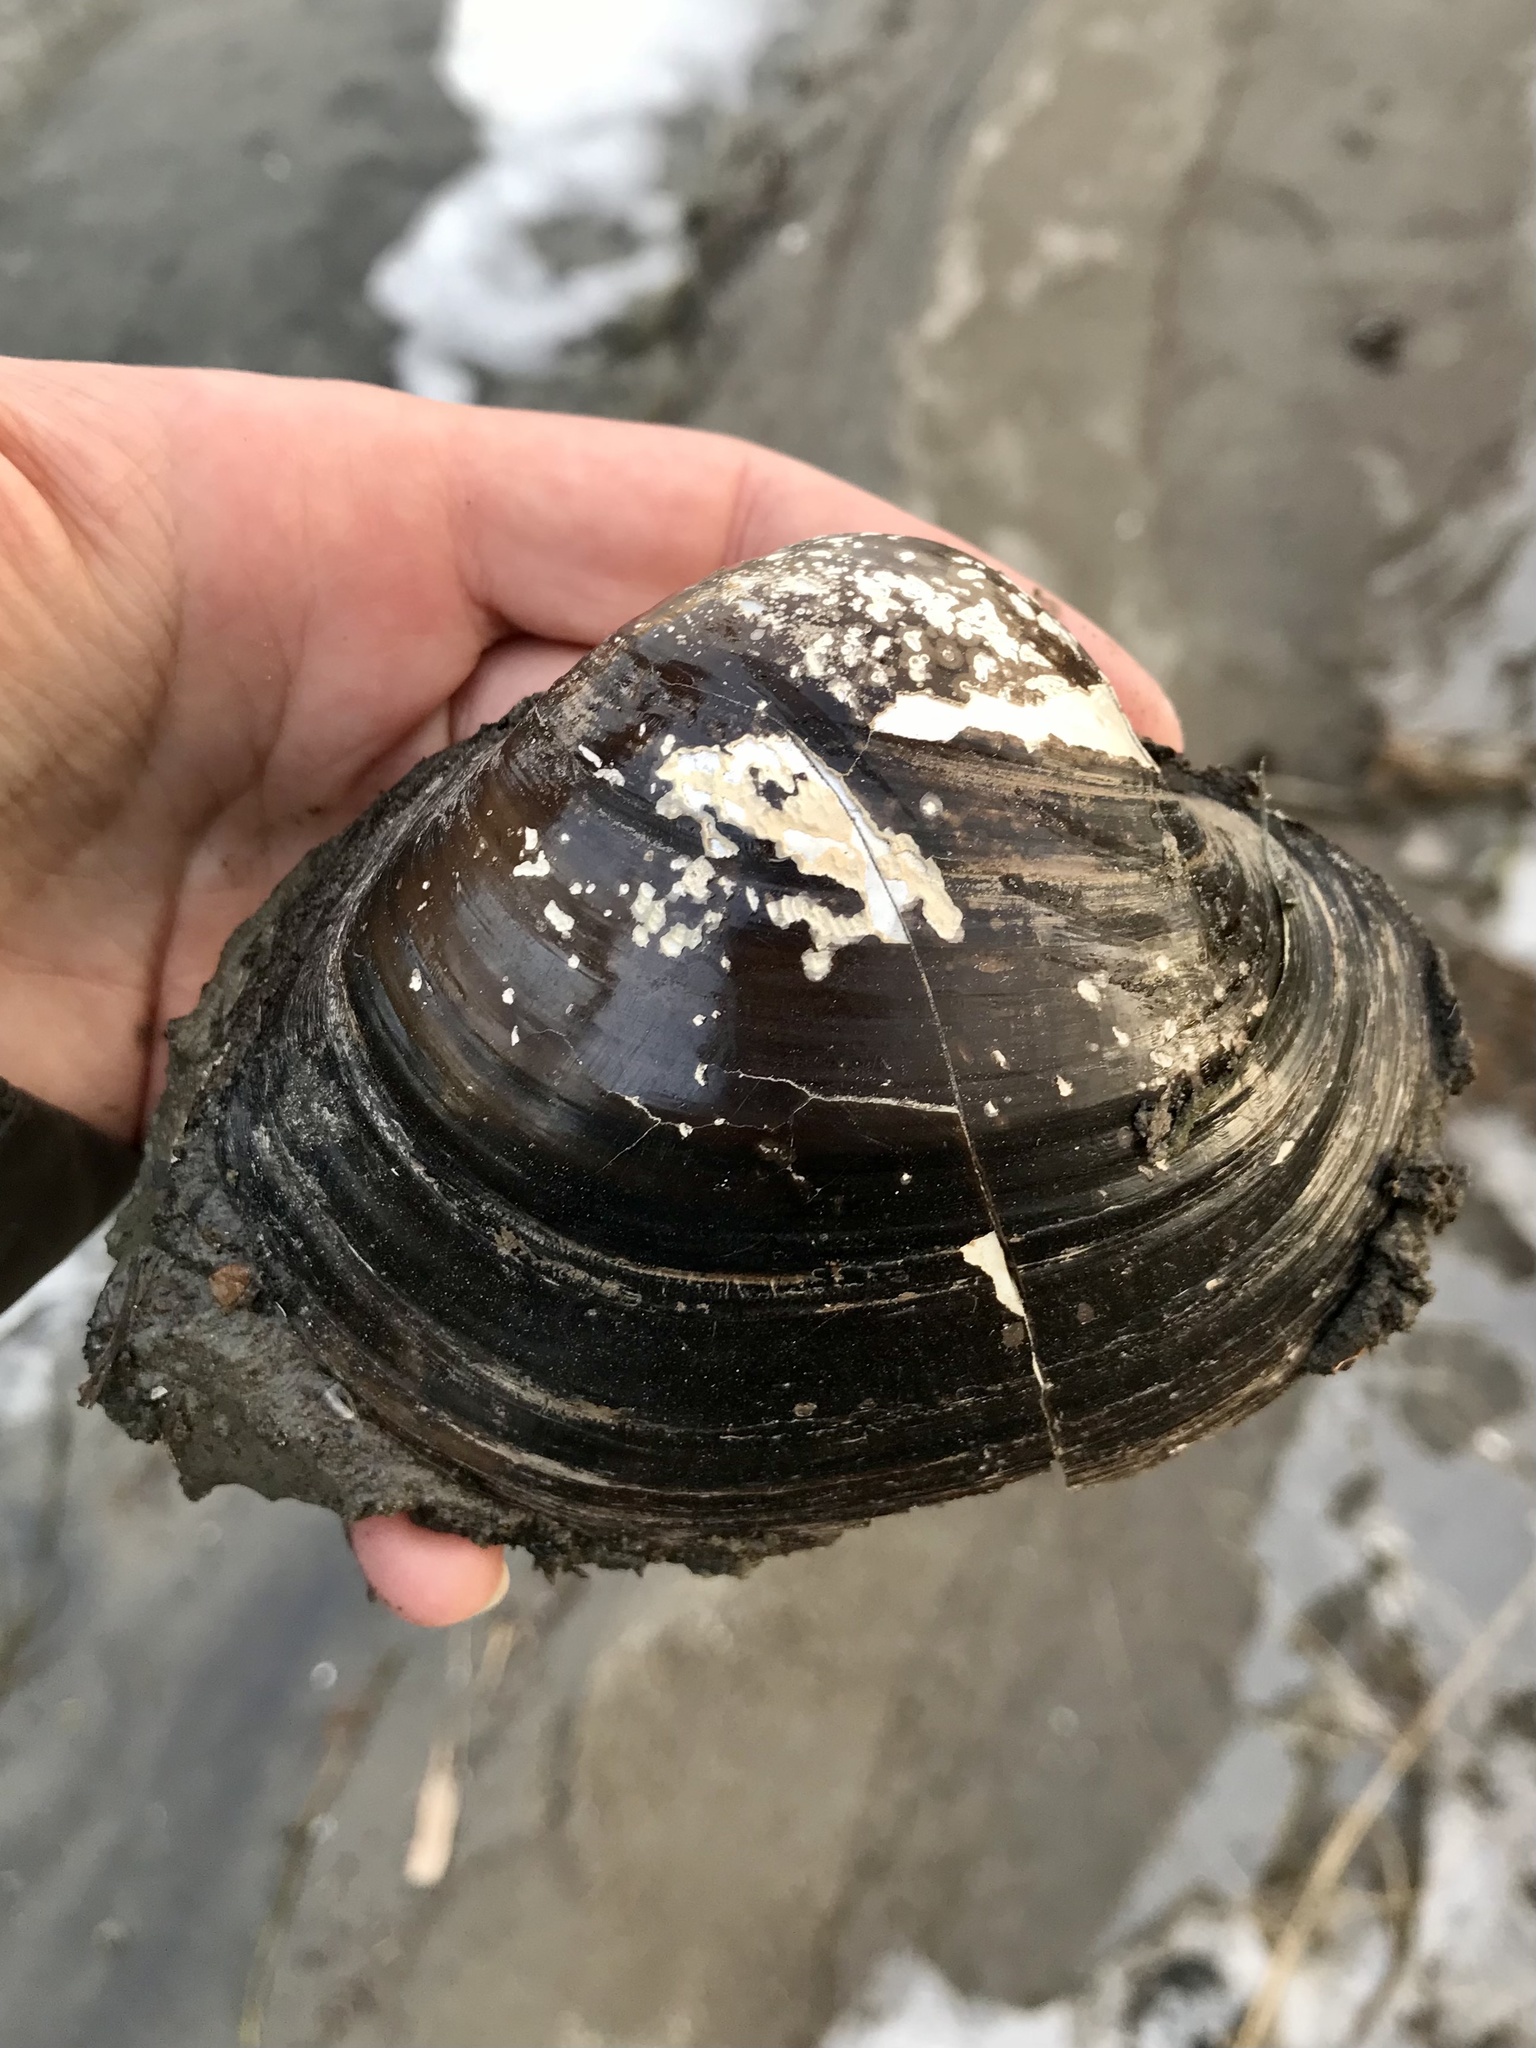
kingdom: Animalia
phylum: Mollusca
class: Bivalvia
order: Unionida
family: Unionidae
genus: Lampsilis
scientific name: Lampsilis cardium
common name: Plain pocketbook
